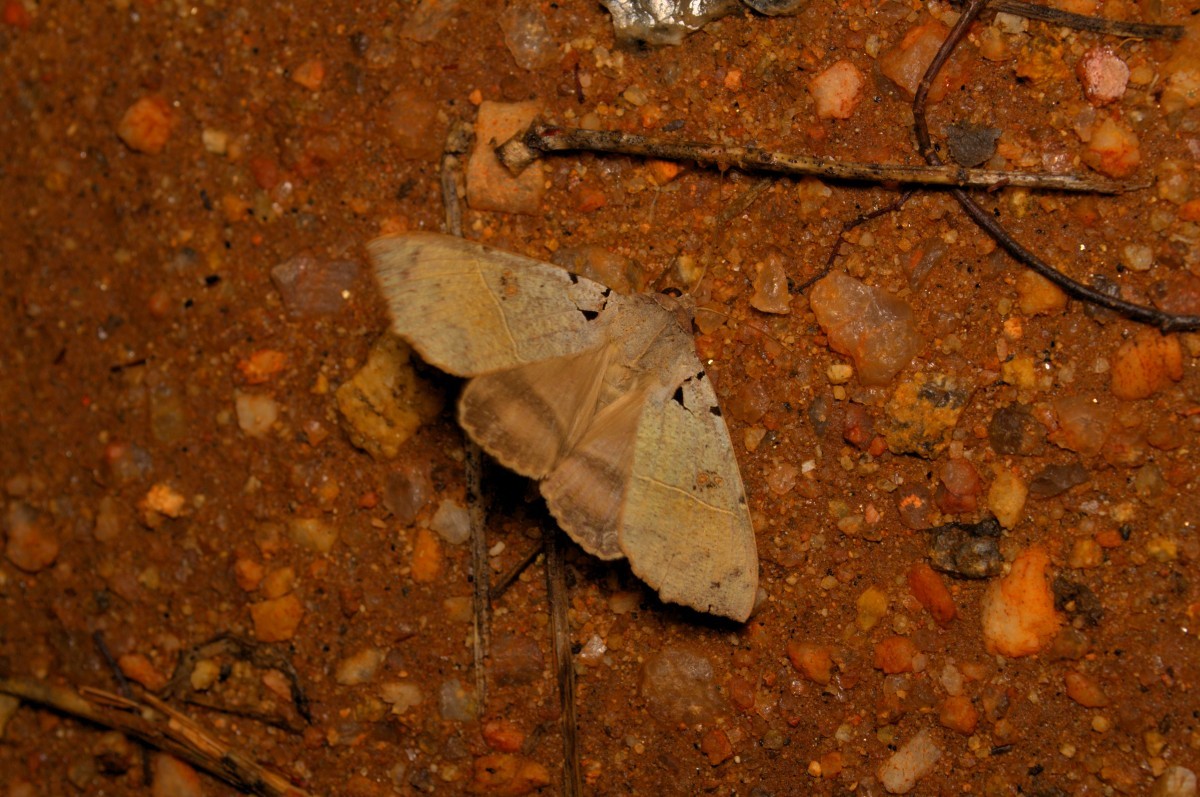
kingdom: Animalia
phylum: Arthropoda
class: Insecta
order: Lepidoptera
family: Erebidae
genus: Serrodes
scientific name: Serrodes partita
